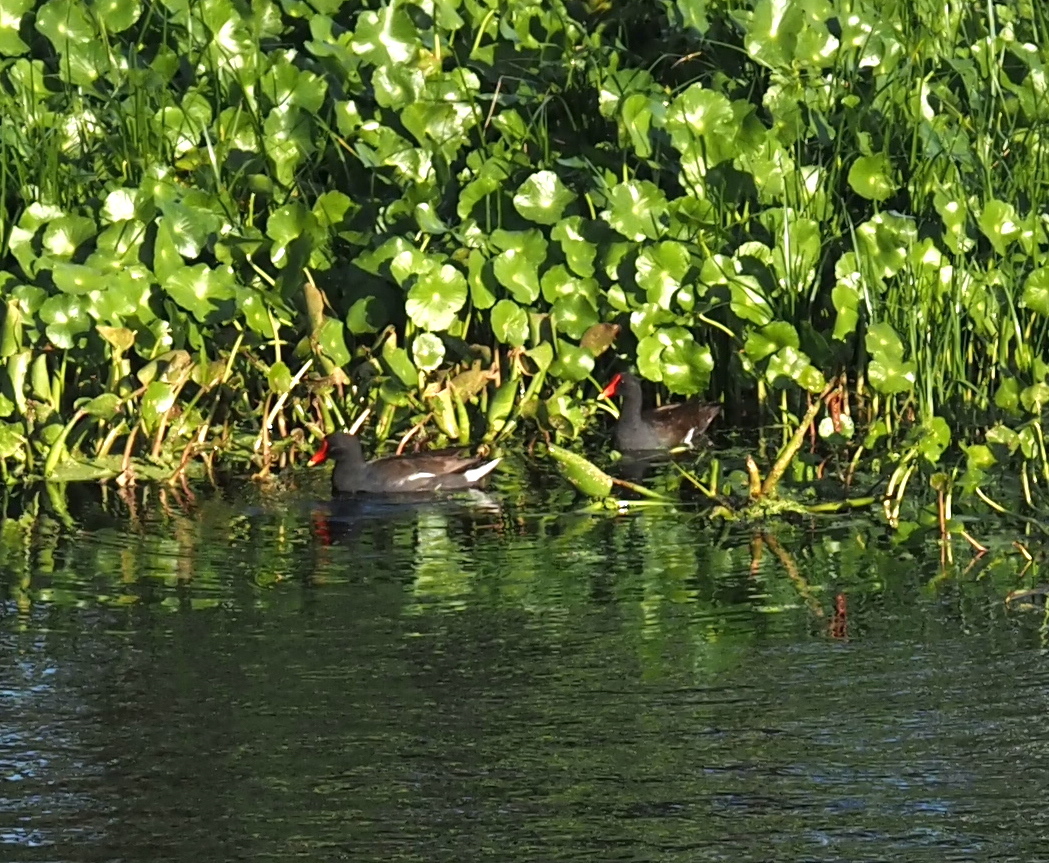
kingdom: Animalia
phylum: Chordata
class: Aves
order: Gruiformes
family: Rallidae
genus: Gallinula
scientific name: Gallinula chloropus
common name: Common moorhen
